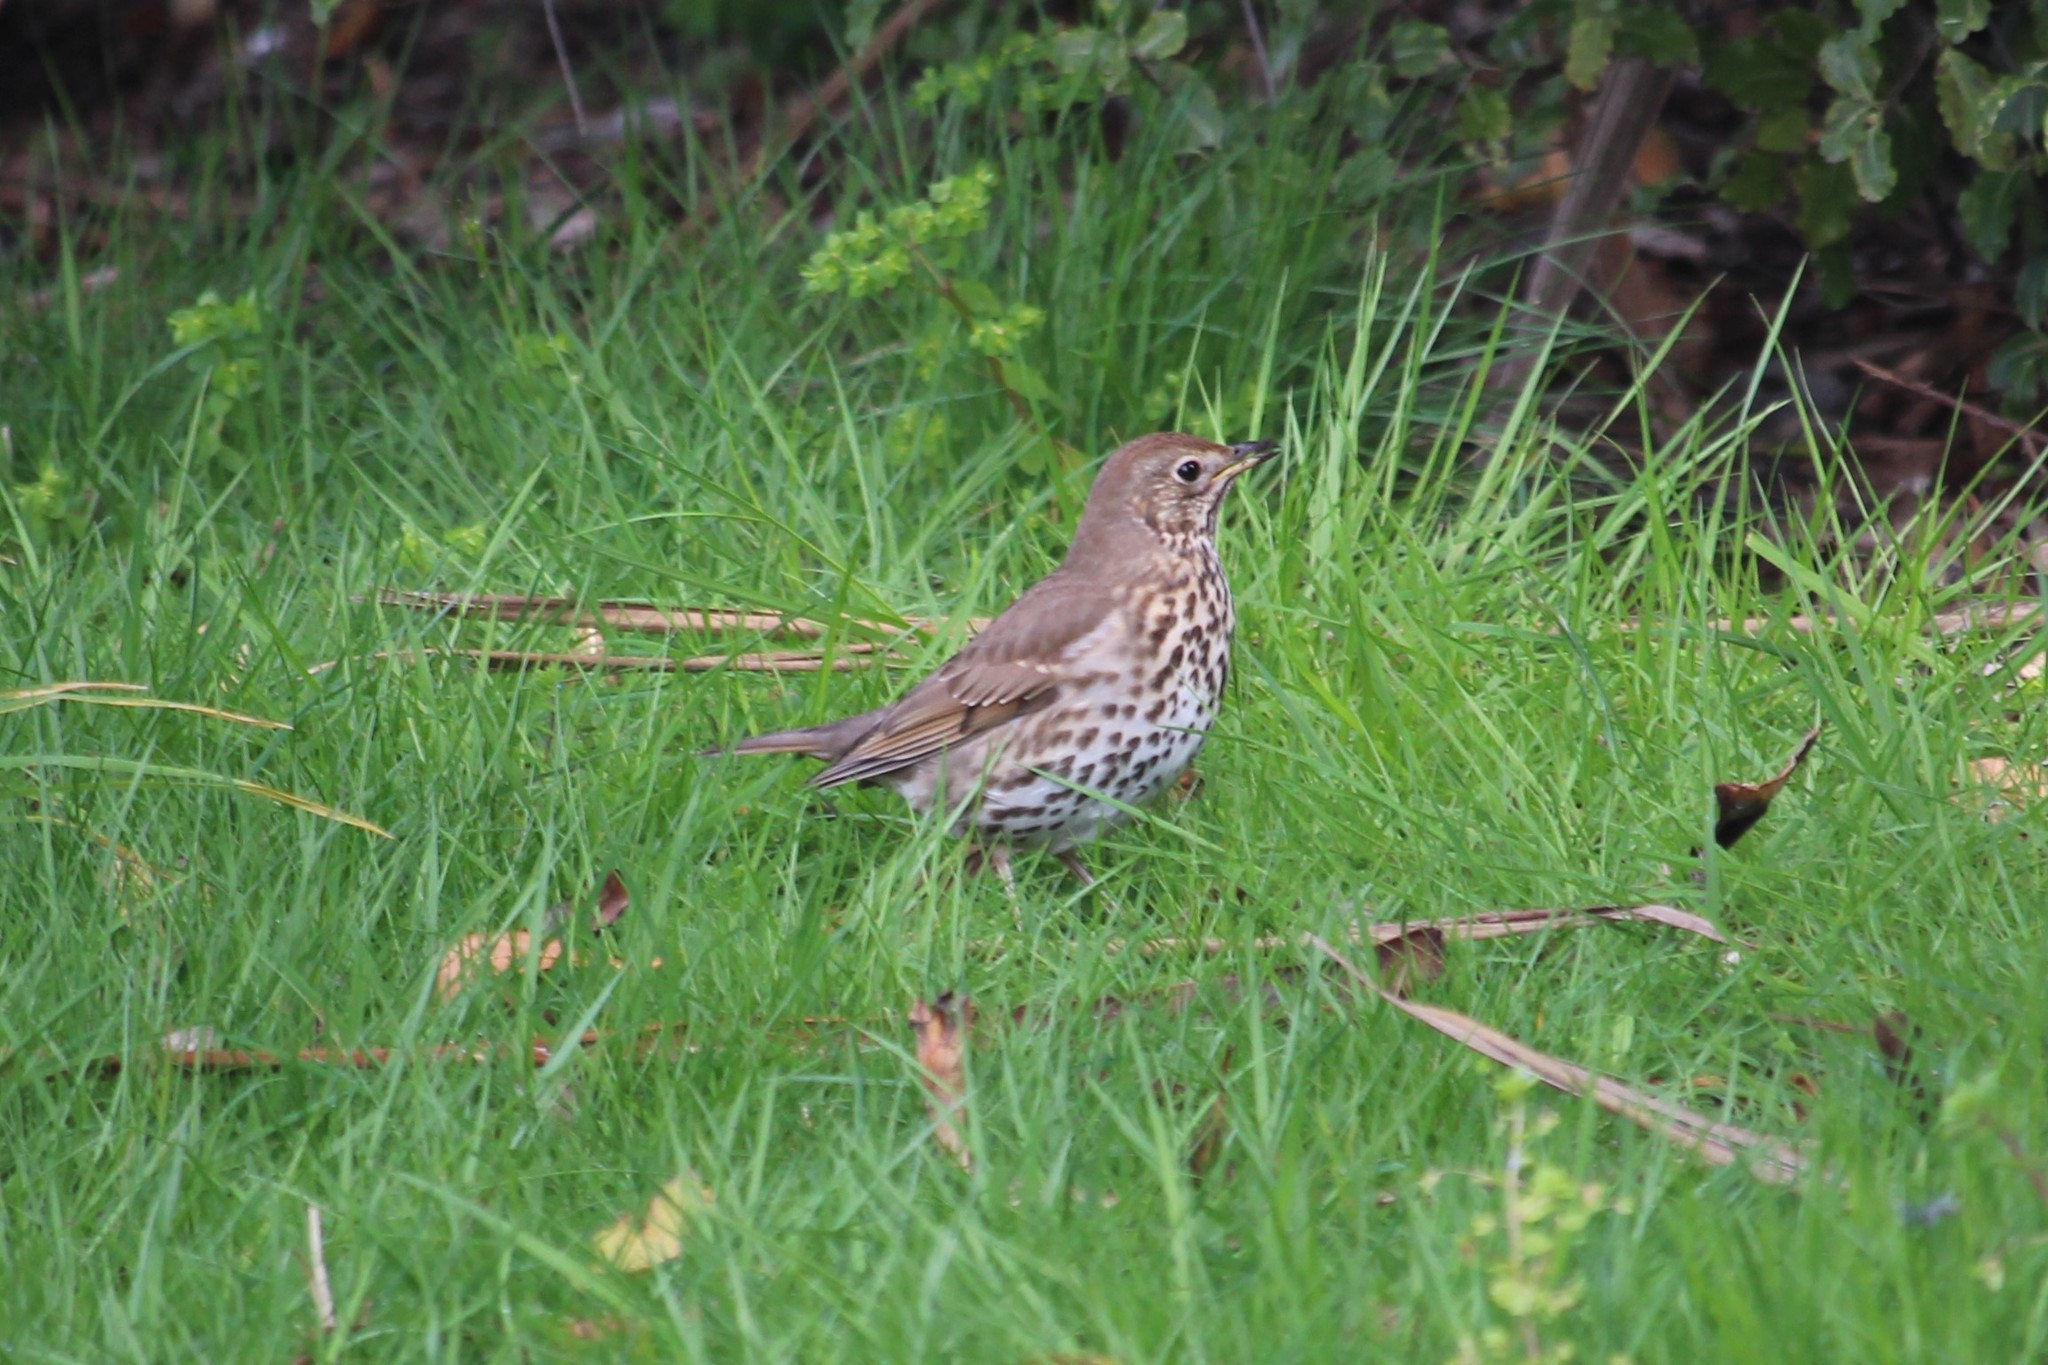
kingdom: Animalia
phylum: Chordata
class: Aves
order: Passeriformes
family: Turdidae
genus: Turdus
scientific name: Turdus philomelos
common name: Song thrush
